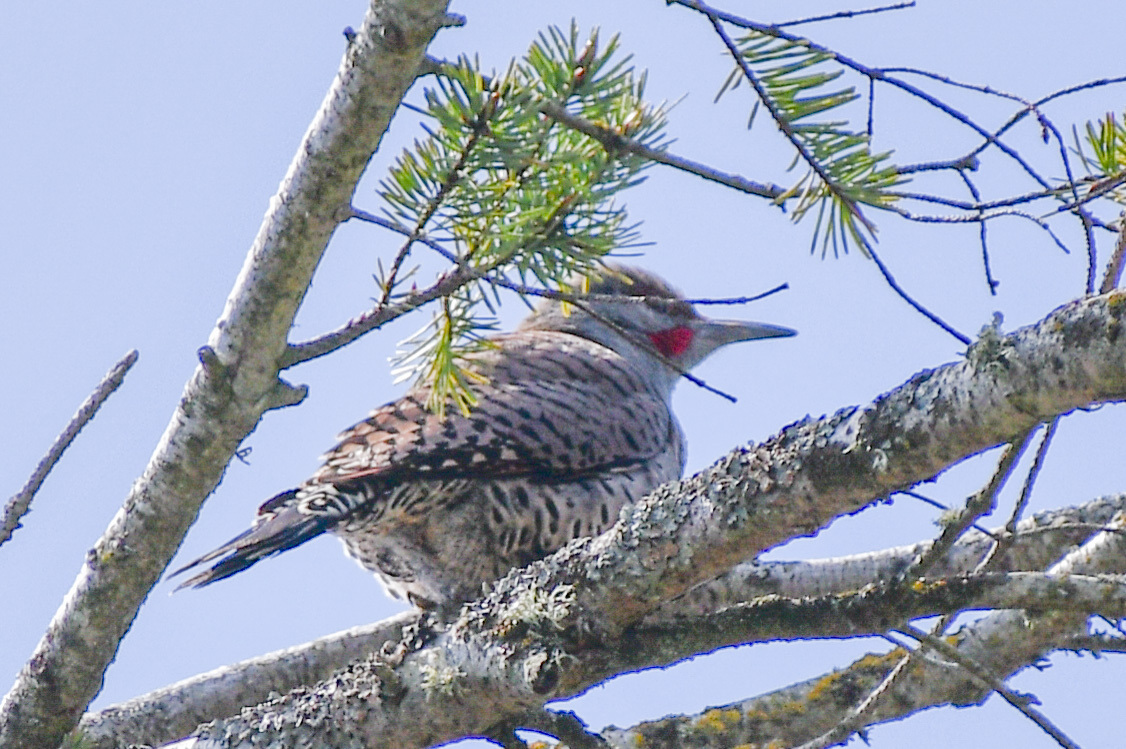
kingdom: Animalia
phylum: Chordata
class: Aves
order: Piciformes
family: Picidae
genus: Colaptes
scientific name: Colaptes auratus
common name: Northern flicker
